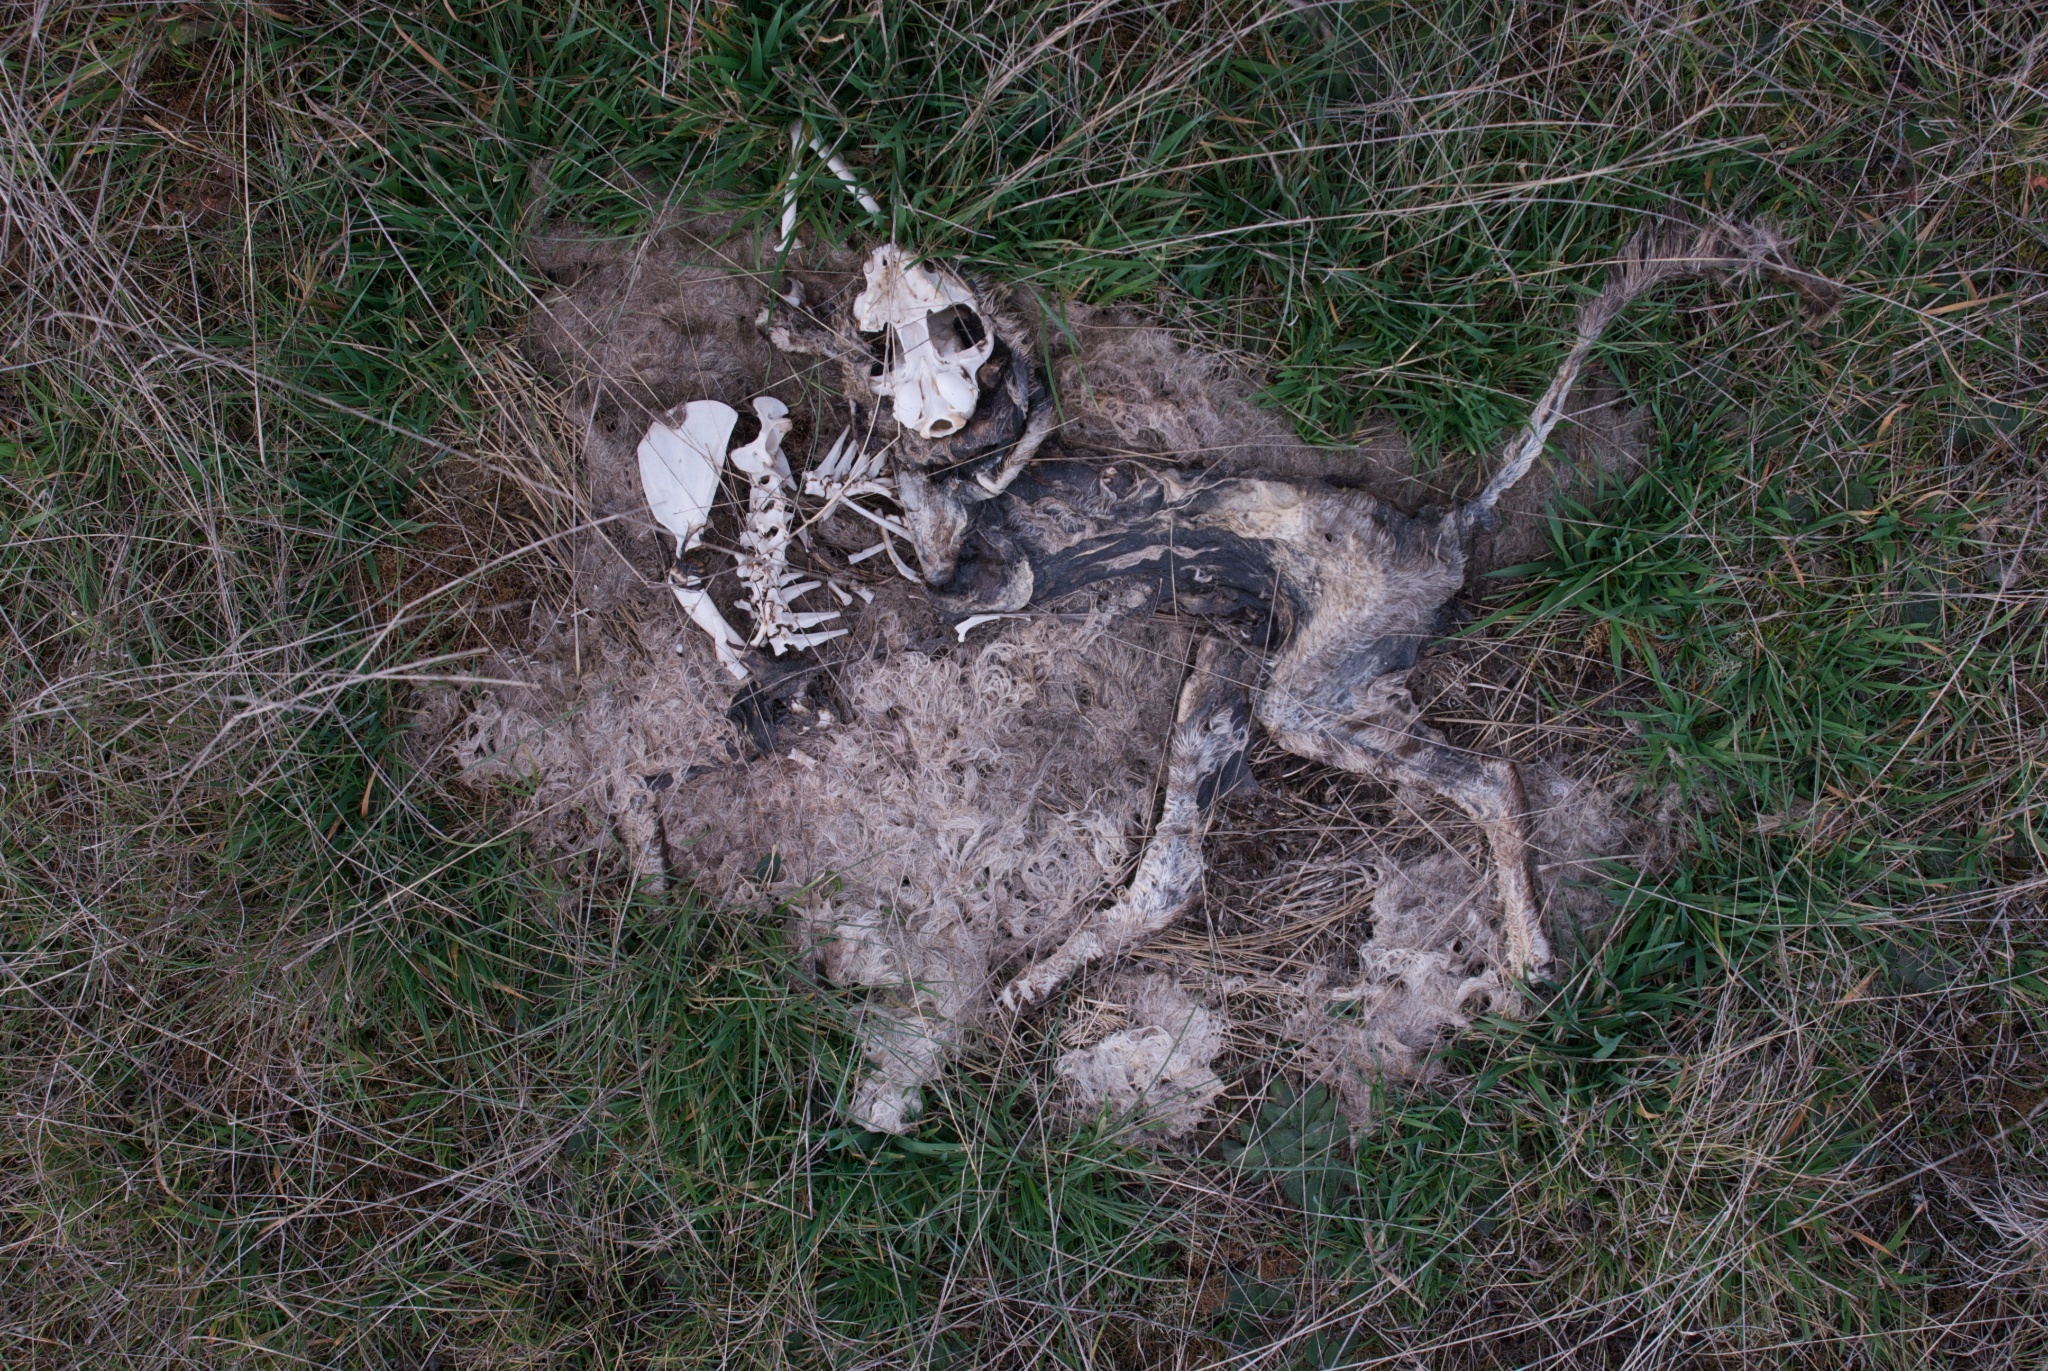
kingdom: Animalia
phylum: Chordata
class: Mammalia
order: Carnivora
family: Felidae
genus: Felis
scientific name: Felis catus
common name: Domestic cat
